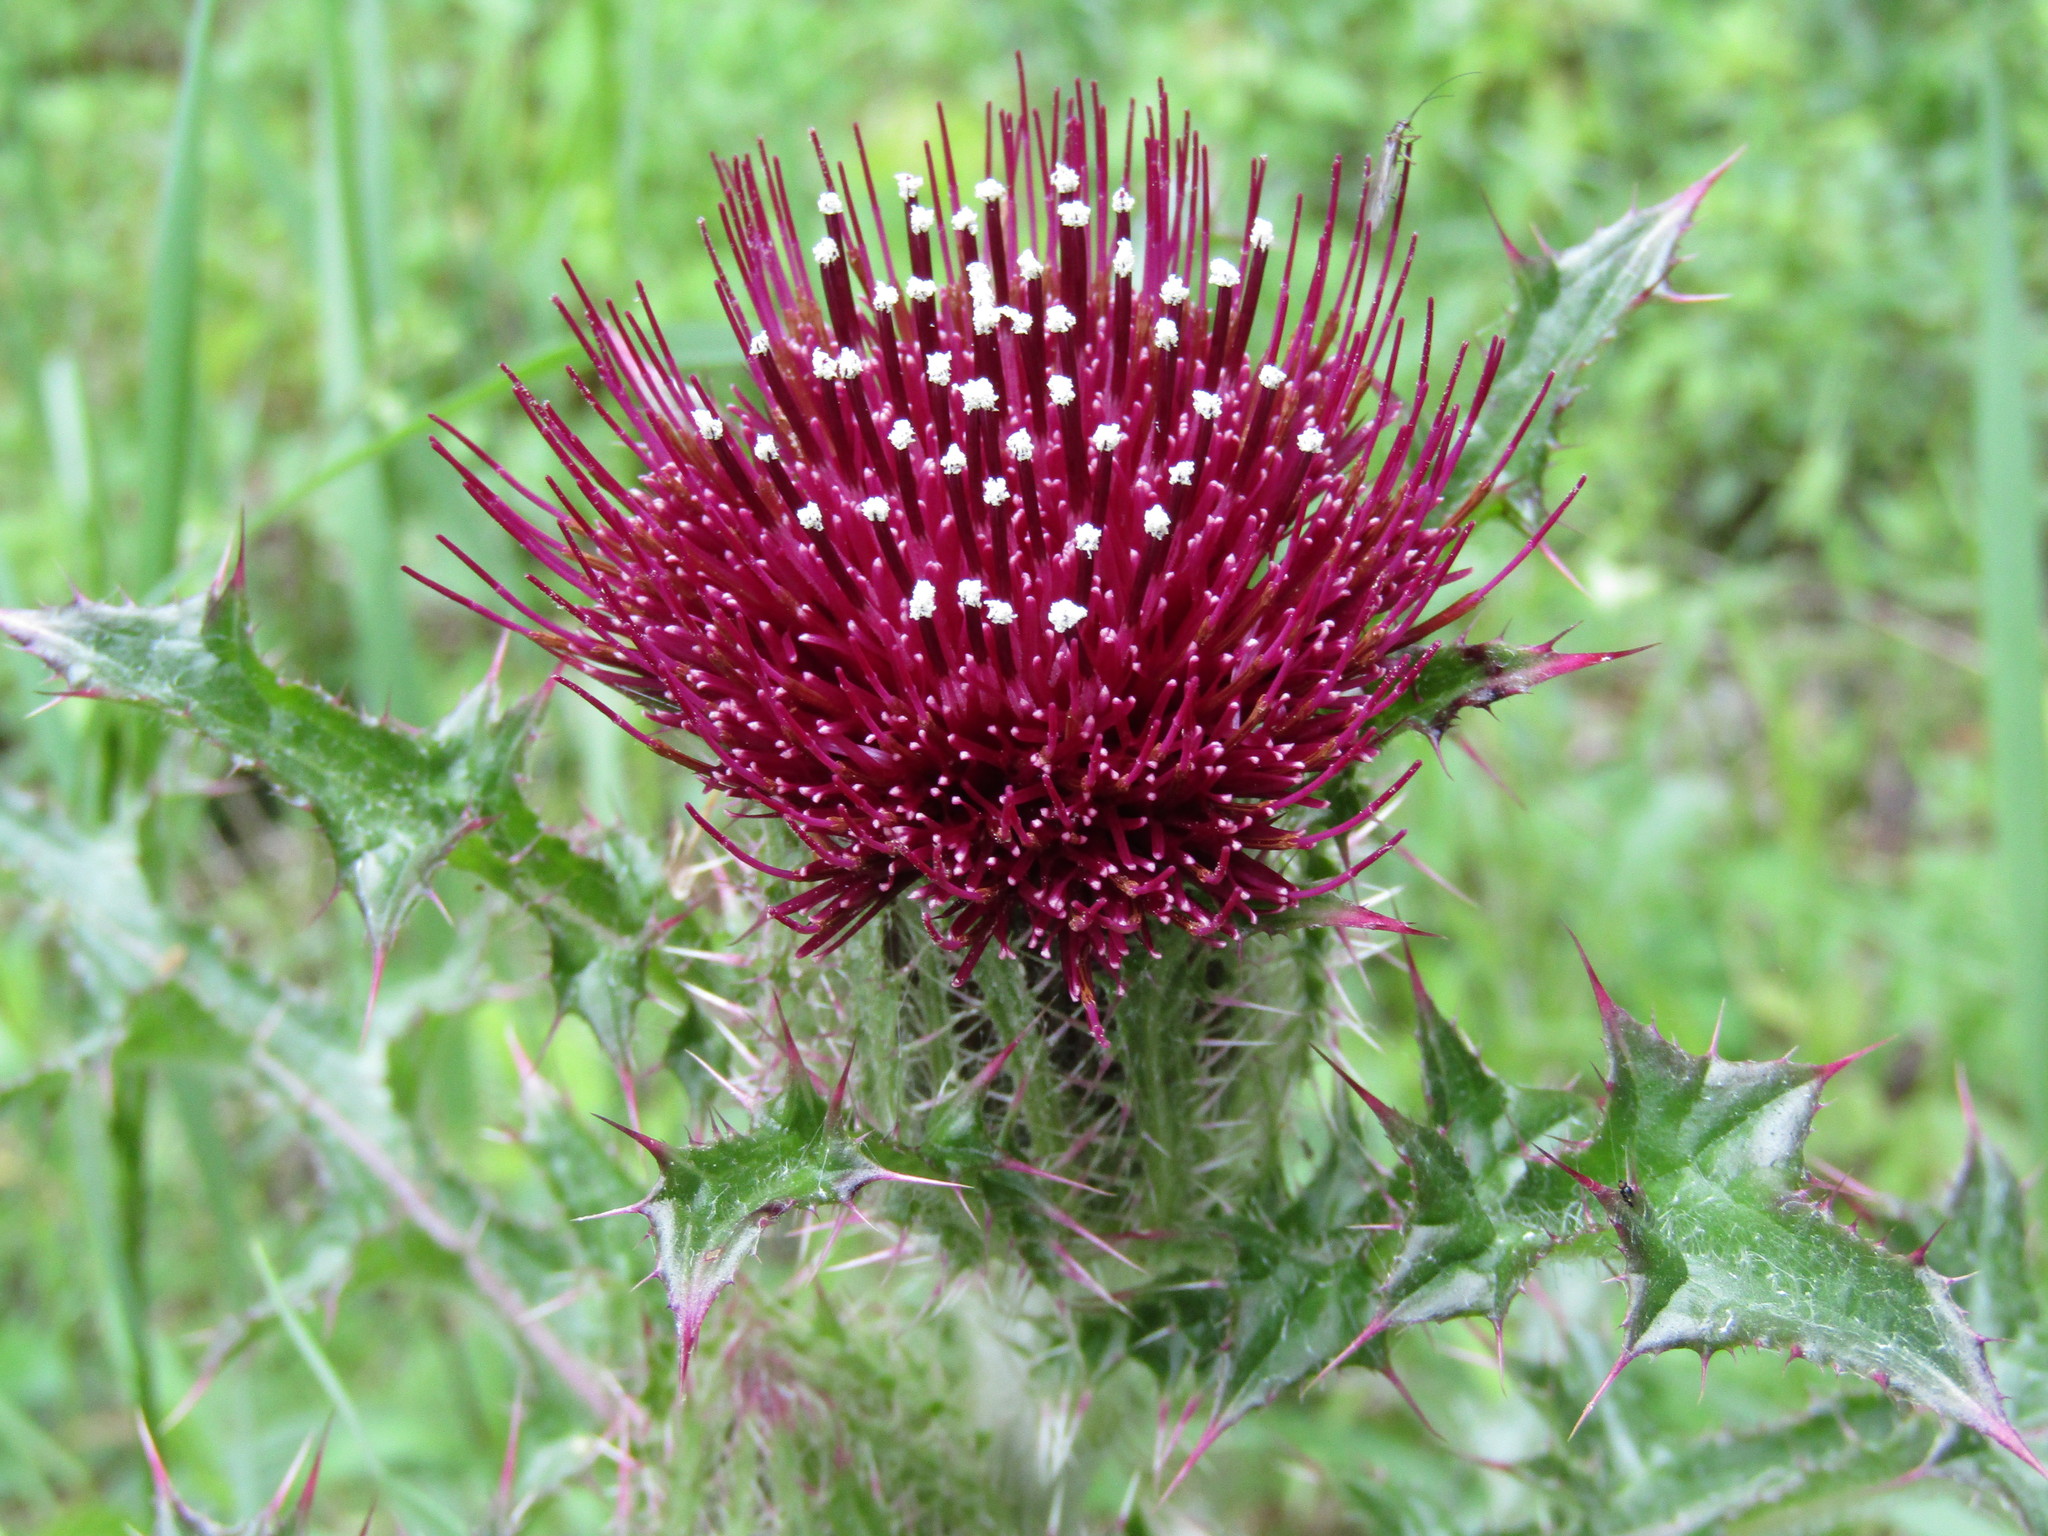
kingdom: Plantae
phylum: Tracheophyta
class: Magnoliopsida
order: Asterales
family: Asteraceae
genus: Cirsium
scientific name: Cirsium horridulum
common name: Bristly thistle
